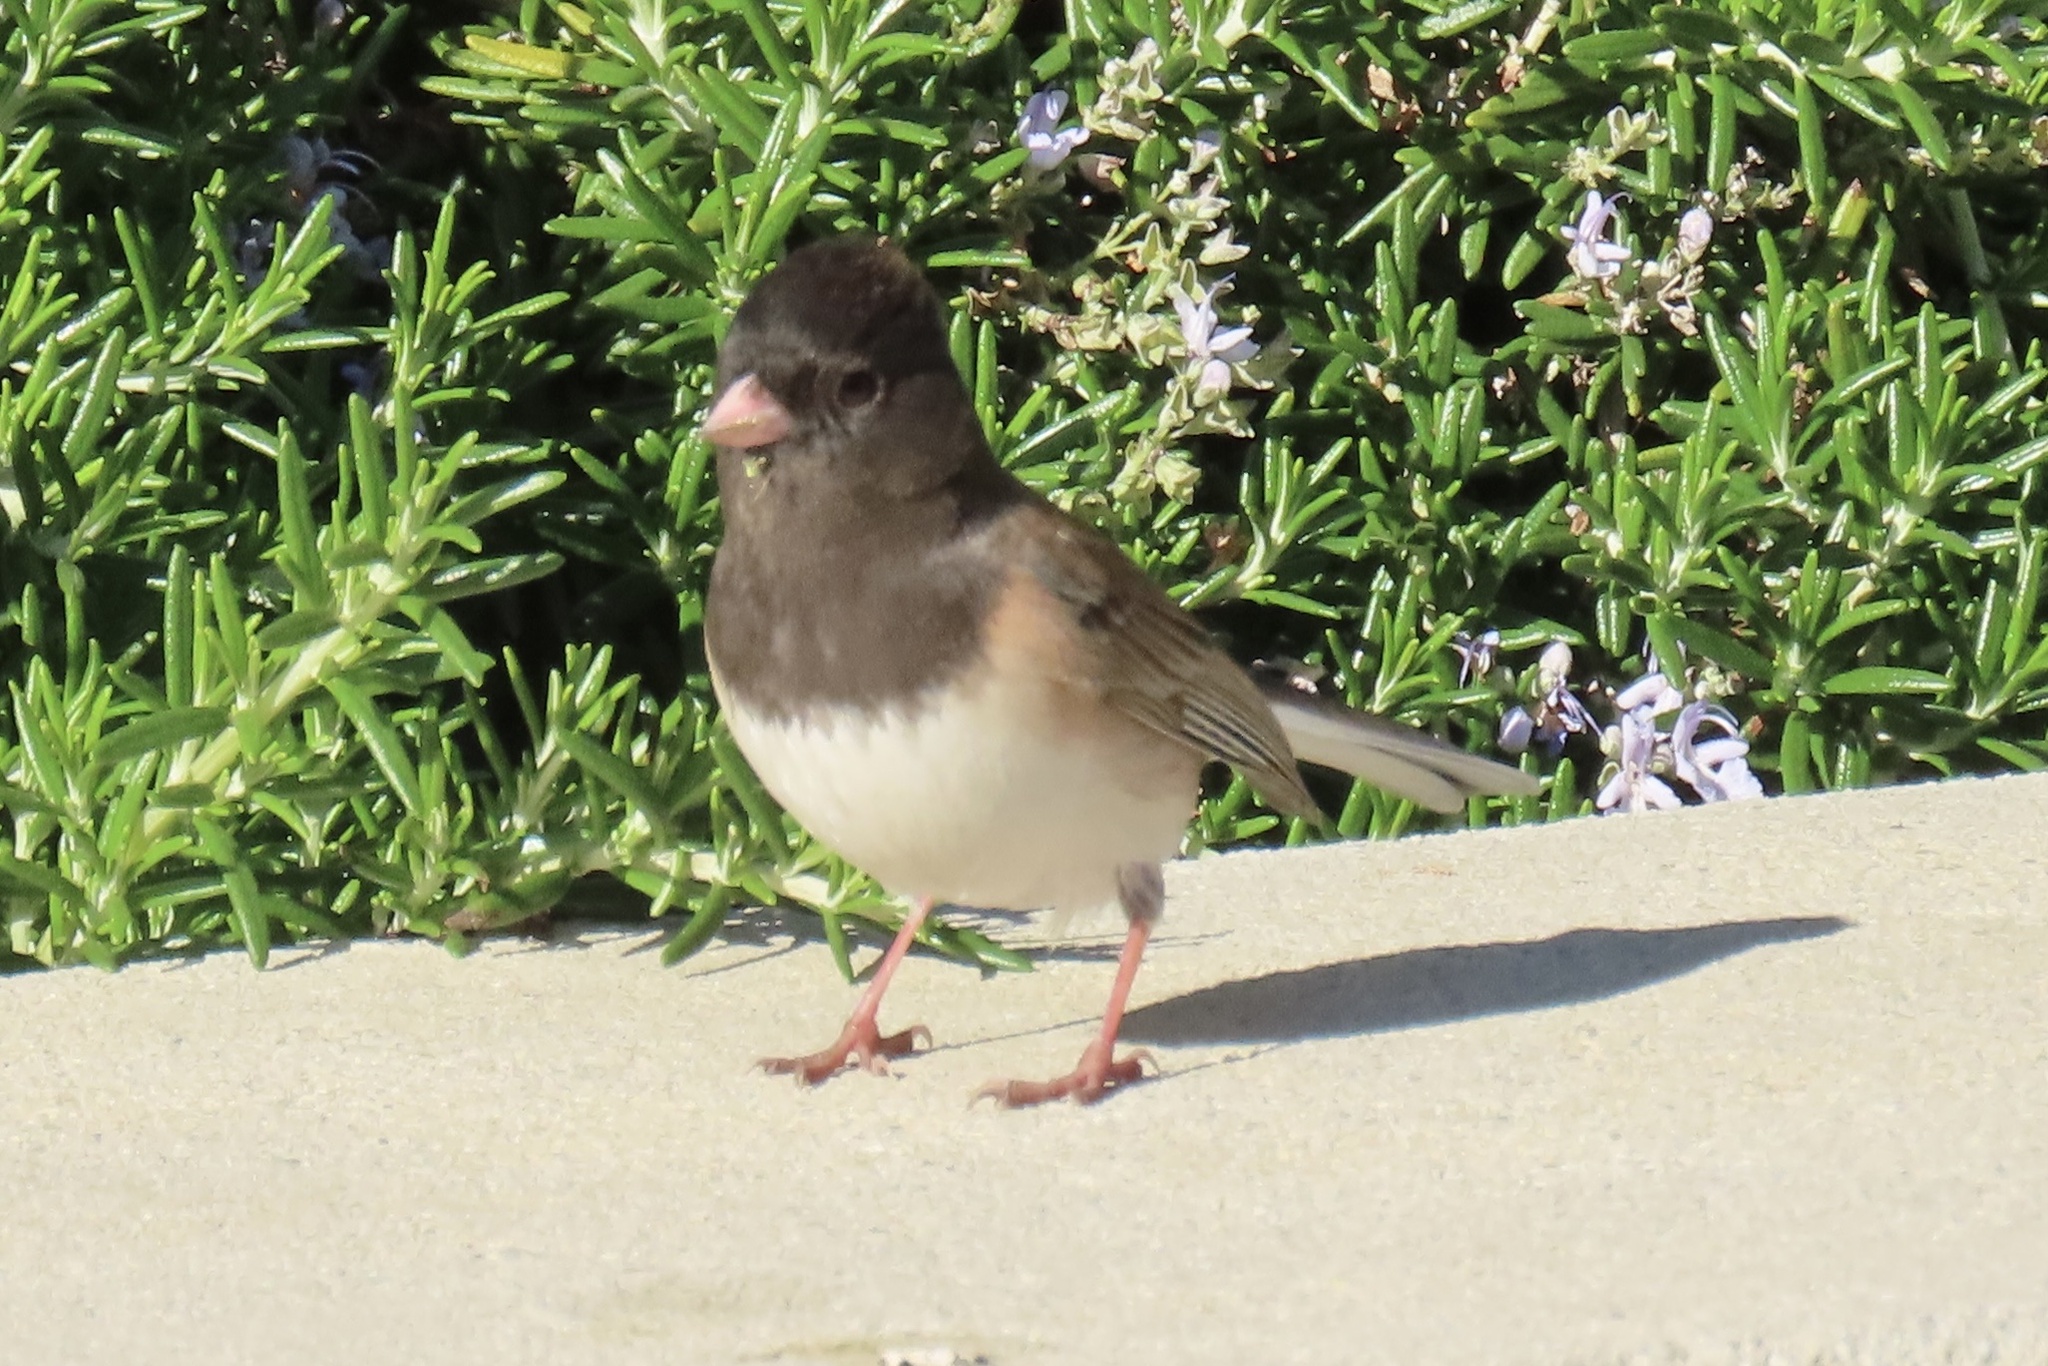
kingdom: Animalia
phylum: Chordata
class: Aves
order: Passeriformes
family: Passerellidae
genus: Junco
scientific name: Junco hyemalis
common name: Dark-eyed junco
